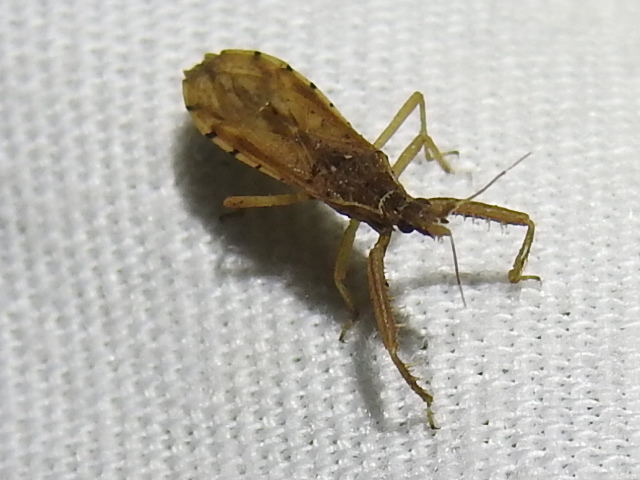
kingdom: Animalia
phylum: Arthropoda
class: Insecta
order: Hemiptera
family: Reduviidae
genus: Pnirontis
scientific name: Pnirontis infirma
